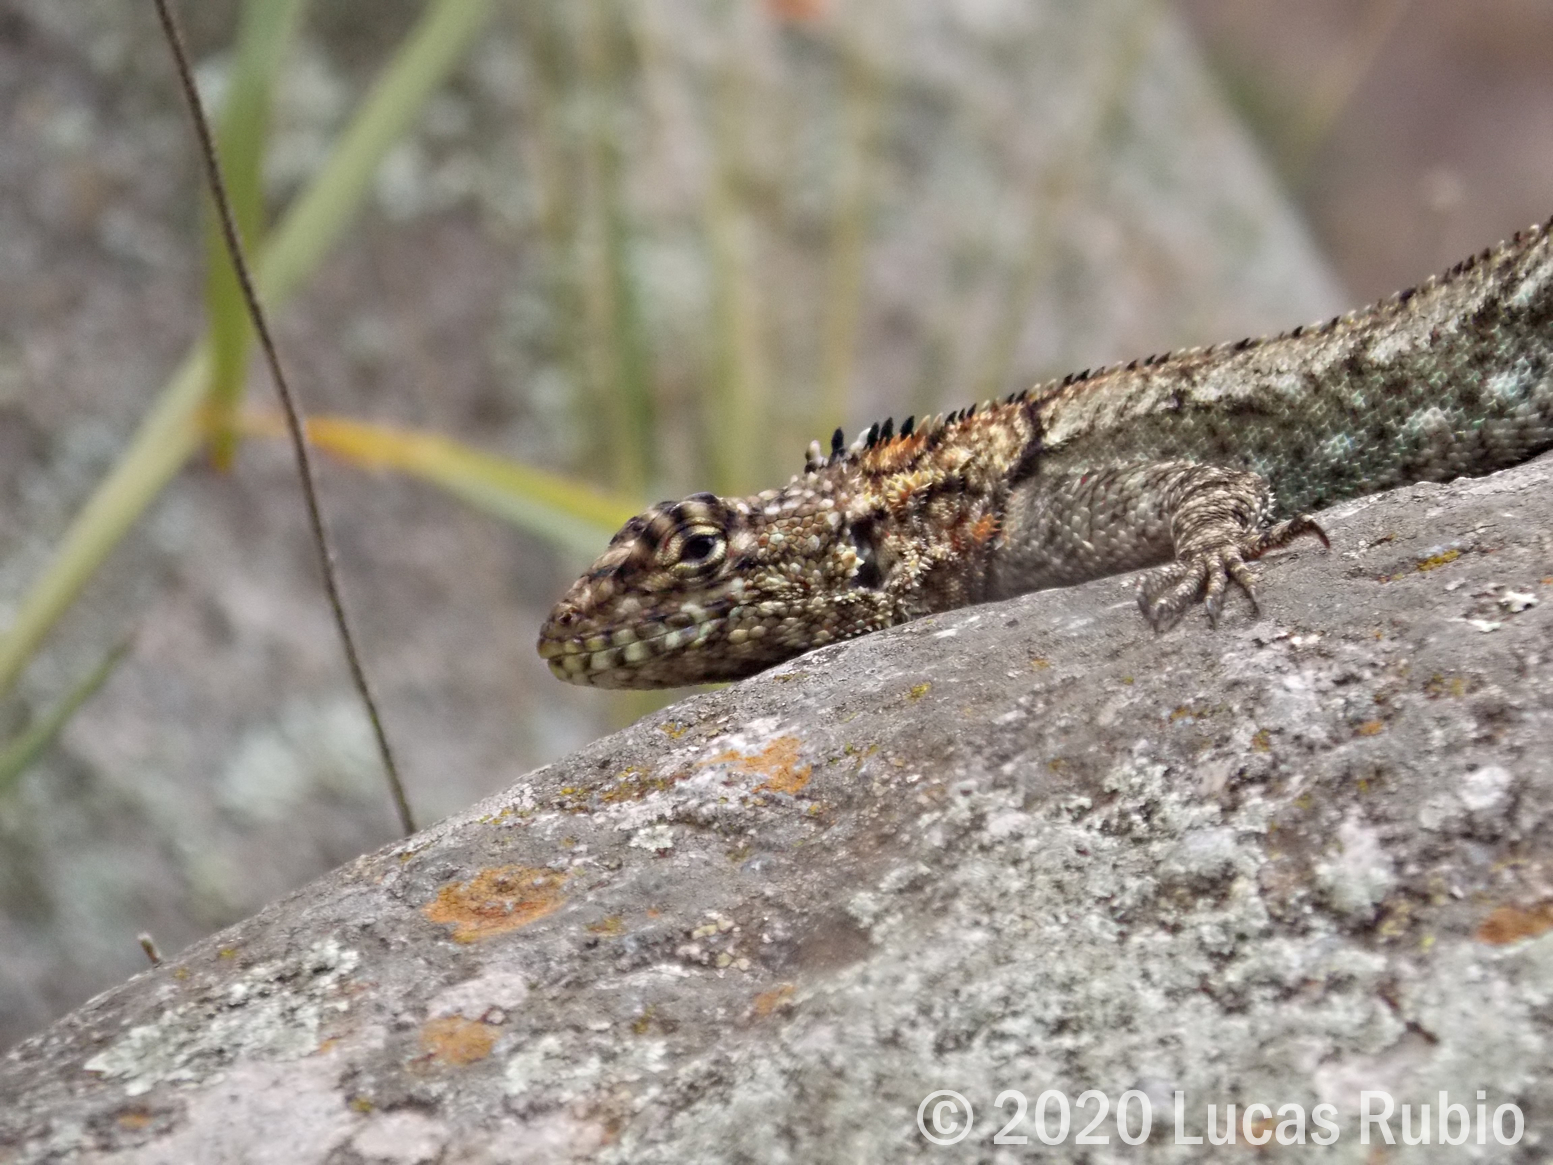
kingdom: Animalia
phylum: Chordata
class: Squamata
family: Tropiduridae
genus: Tropidurus
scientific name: Tropidurus spinulosus
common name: Spiny lava lizard
